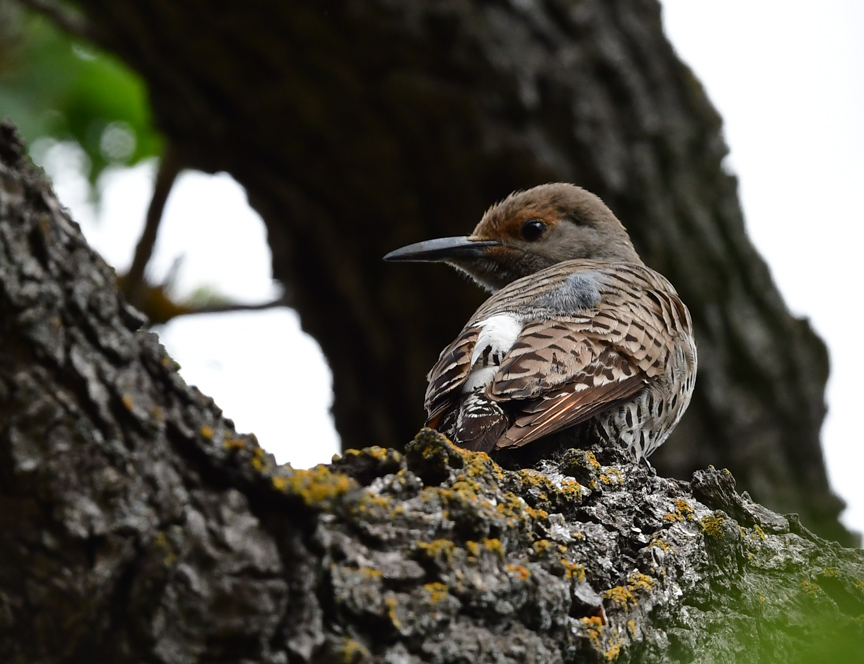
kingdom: Animalia
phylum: Chordata
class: Aves
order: Piciformes
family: Picidae
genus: Colaptes
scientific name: Colaptes auratus
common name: Northern flicker
